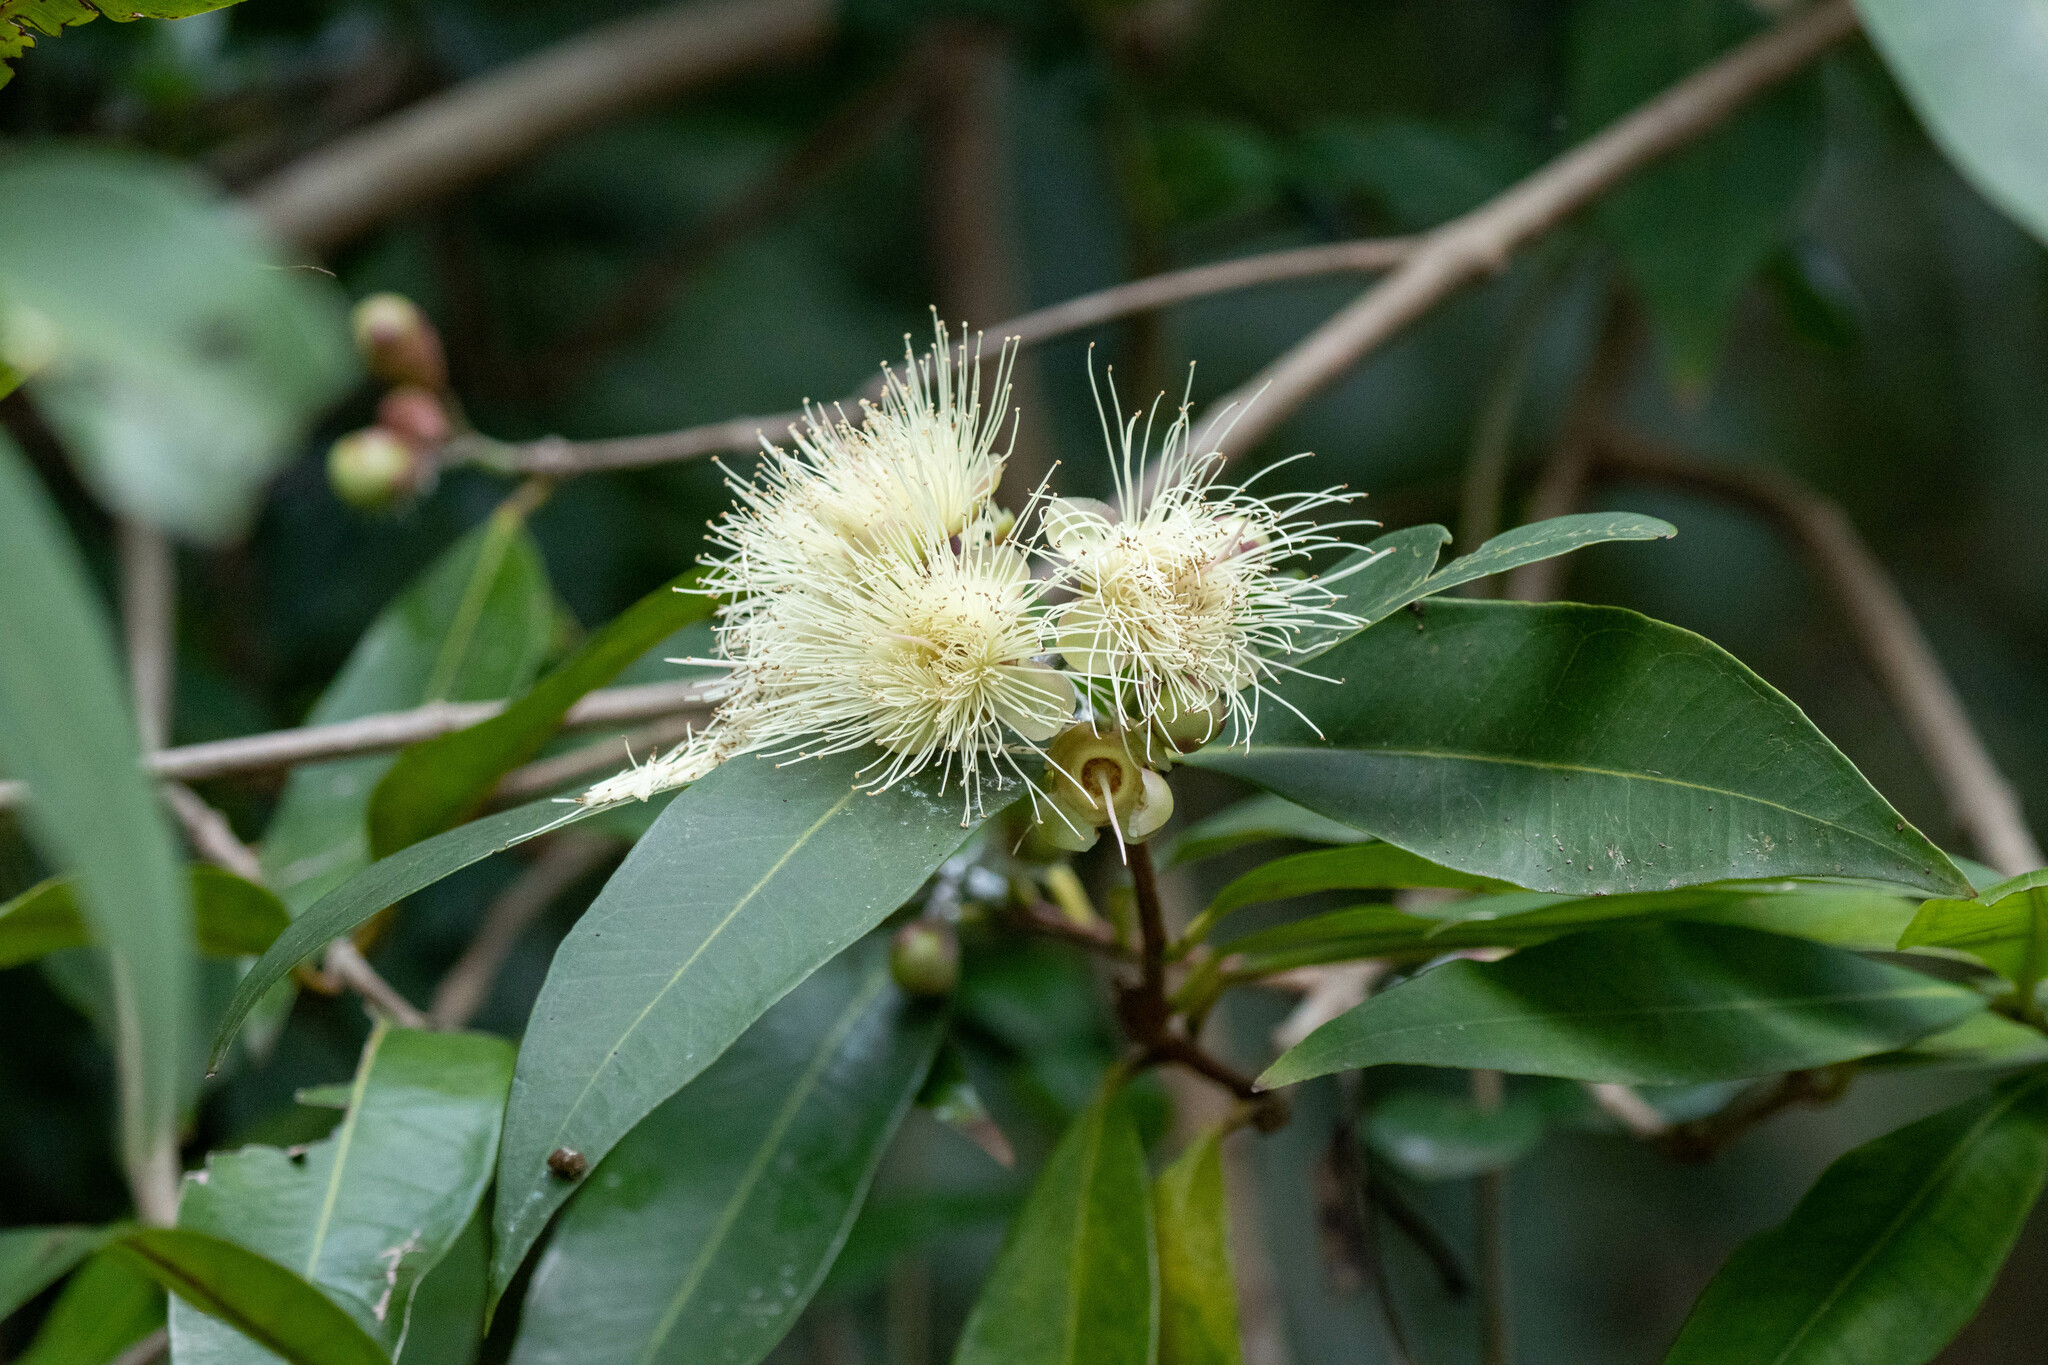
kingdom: Plantae
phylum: Tracheophyta
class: Magnoliopsida
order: Myrtales
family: Myrtaceae
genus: Syzygium
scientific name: Syzygium jambos
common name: Malabar plum
